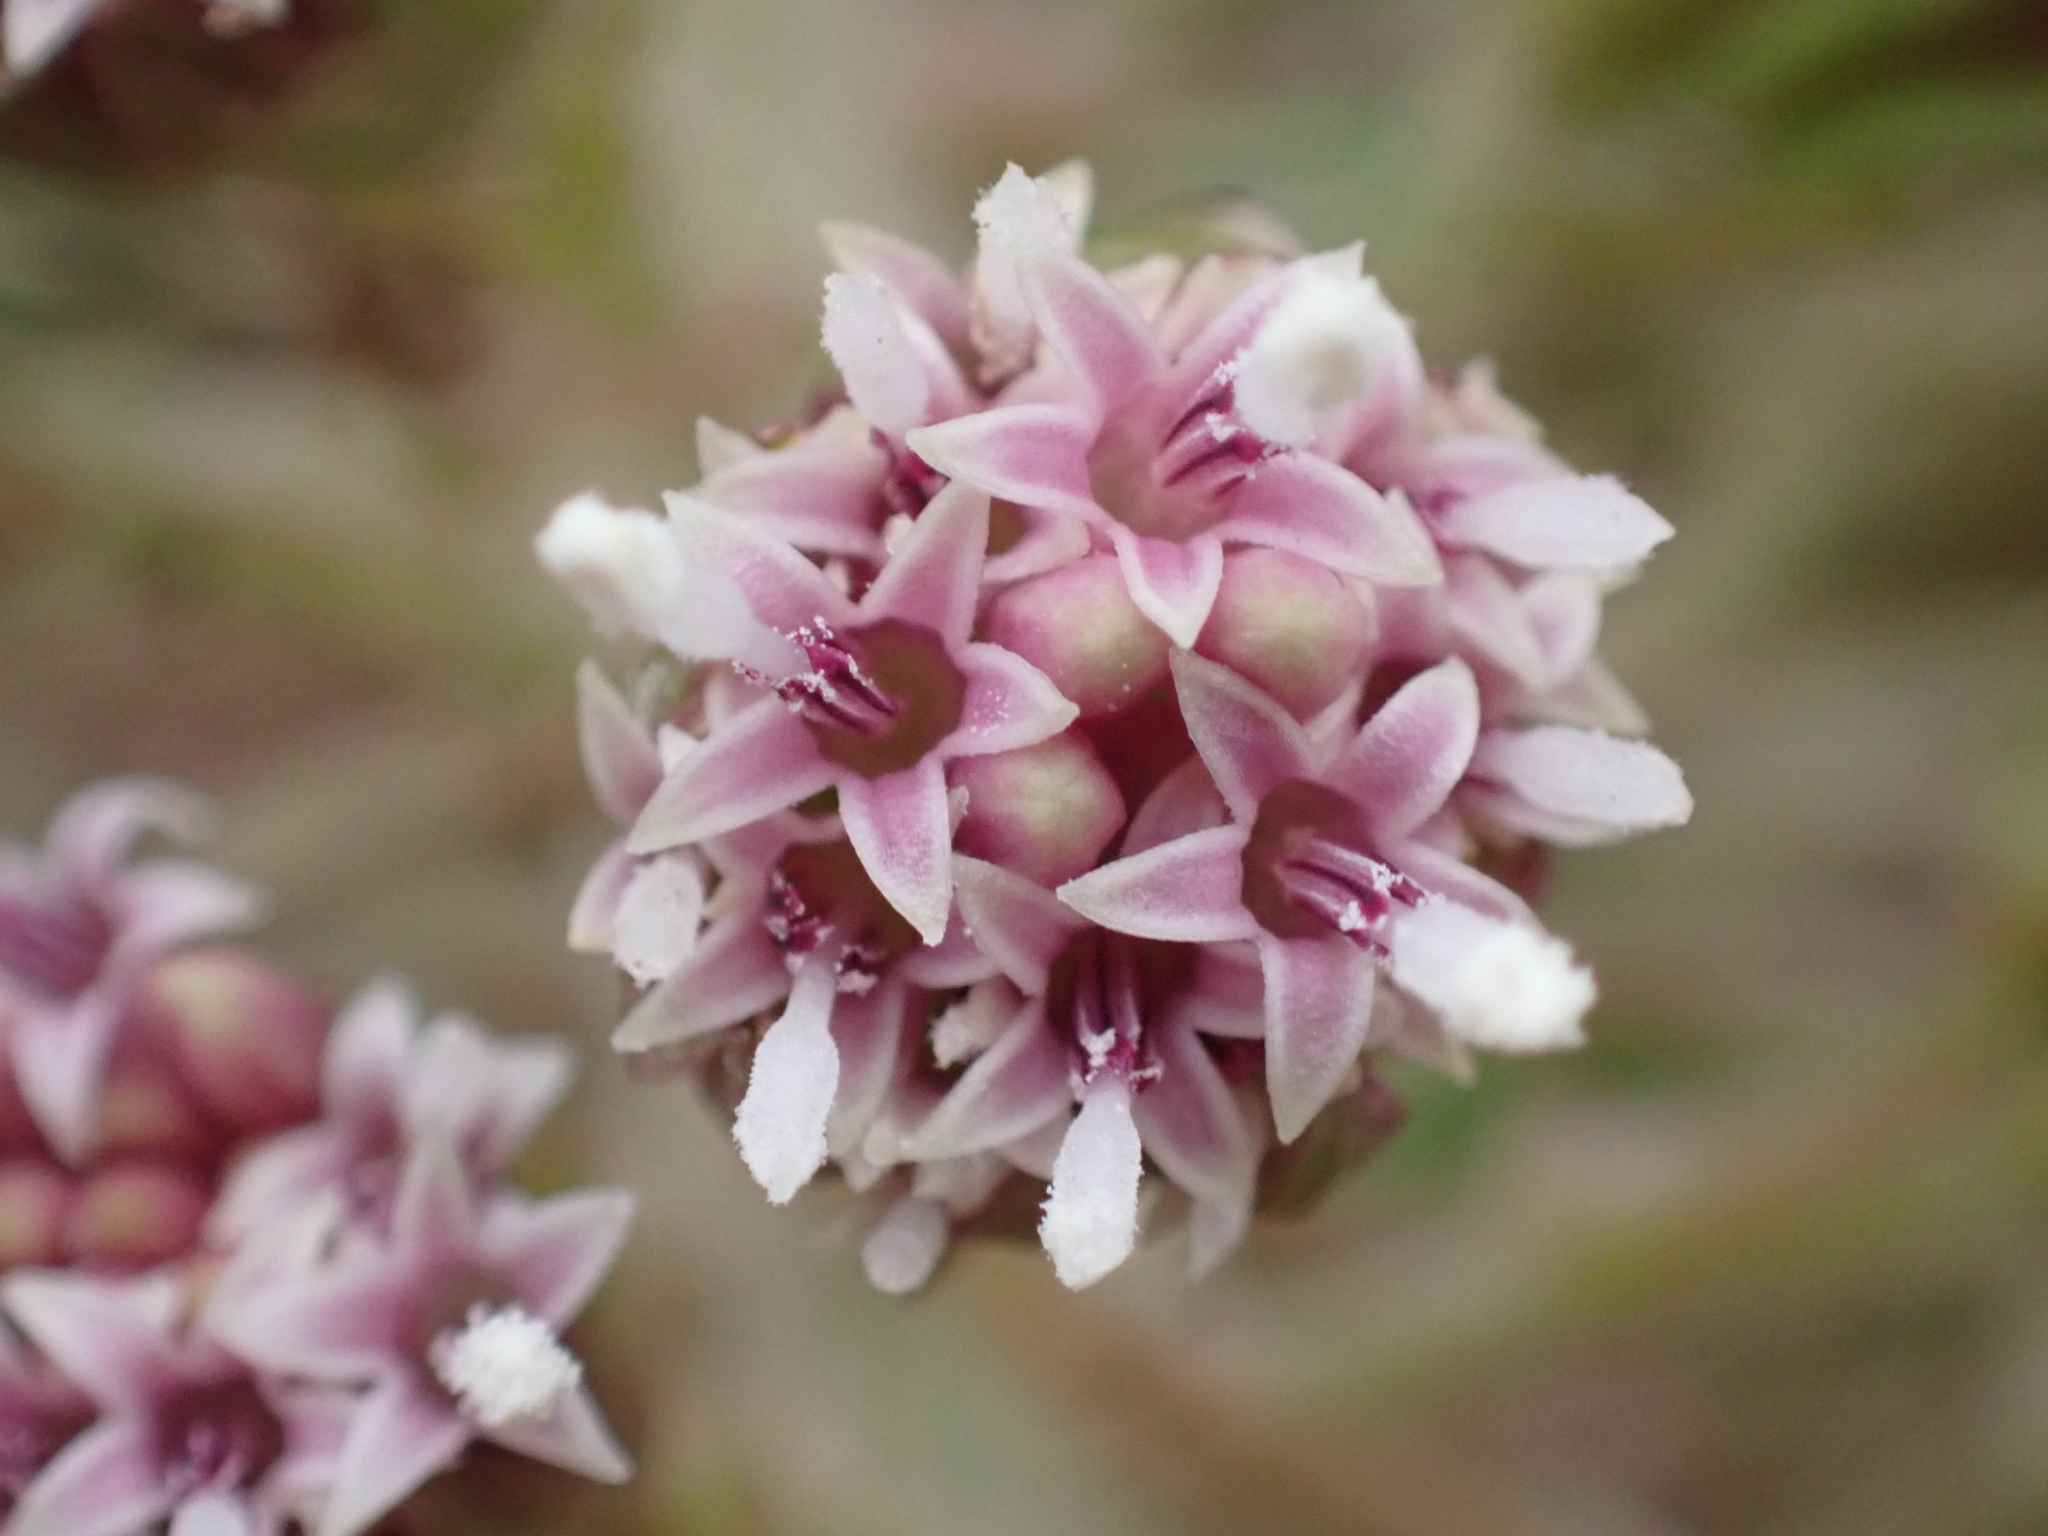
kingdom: Plantae
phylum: Tracheophyta
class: Magnoliopsida
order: Asterales
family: Asteraceae
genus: Petasites
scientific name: Petasites hybridus
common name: Butterbur
